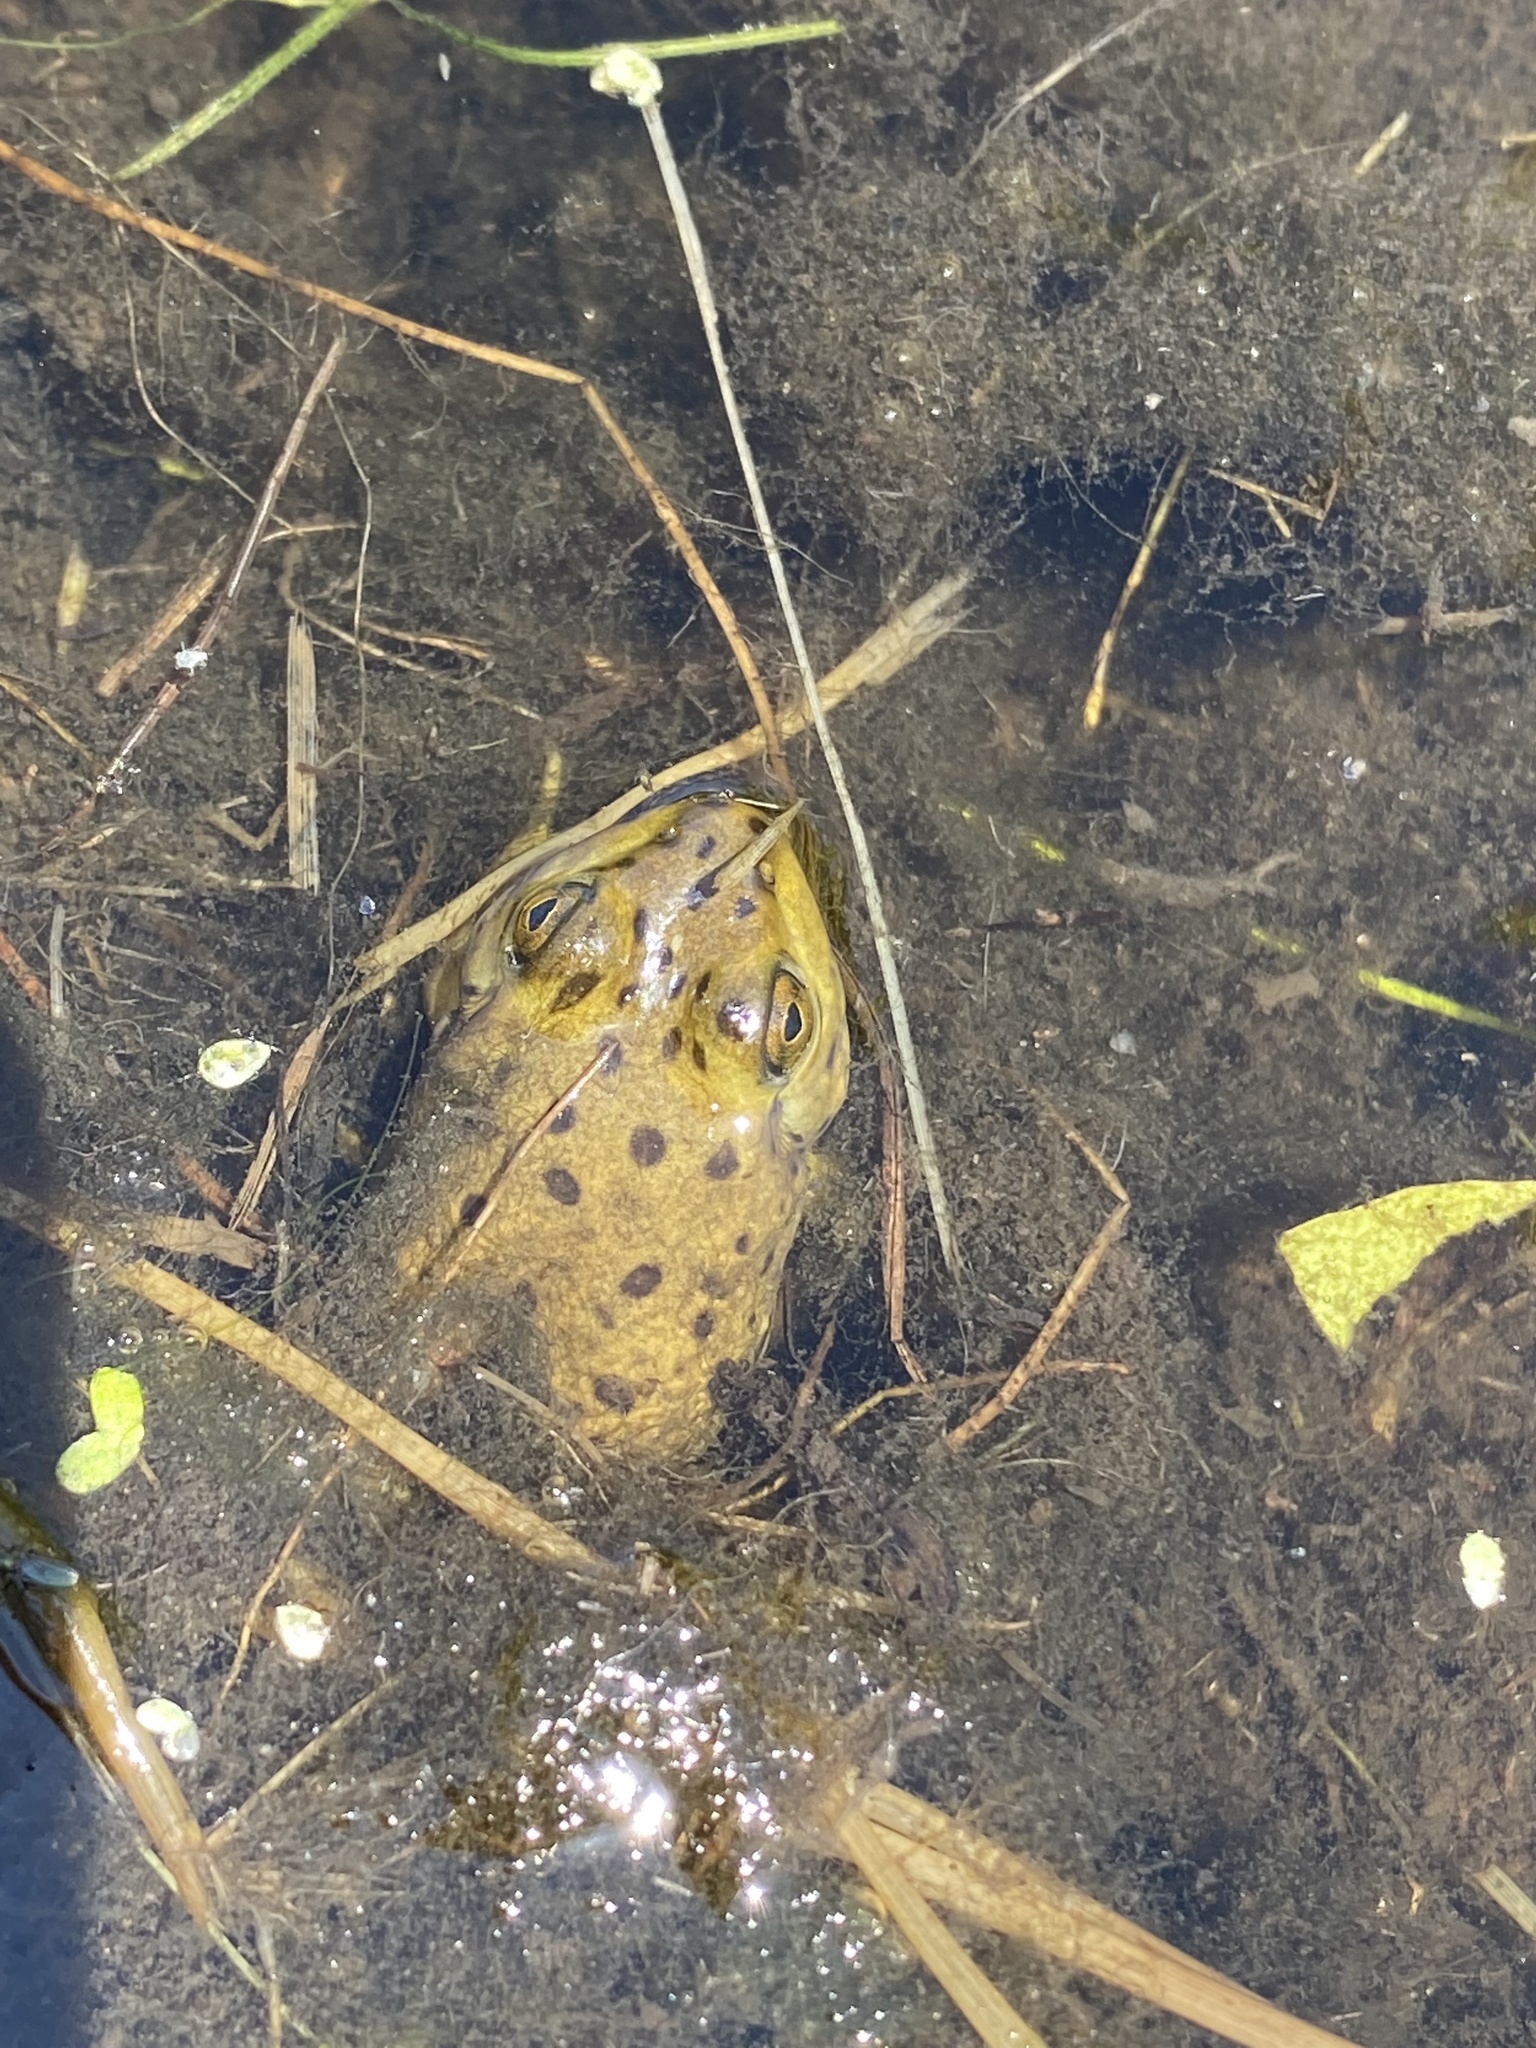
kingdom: Animalia
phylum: Chordata
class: Amphibia
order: Anura
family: Ranidae
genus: Lithobates
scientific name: Lithobates catesbeianus
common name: American bullfrog
